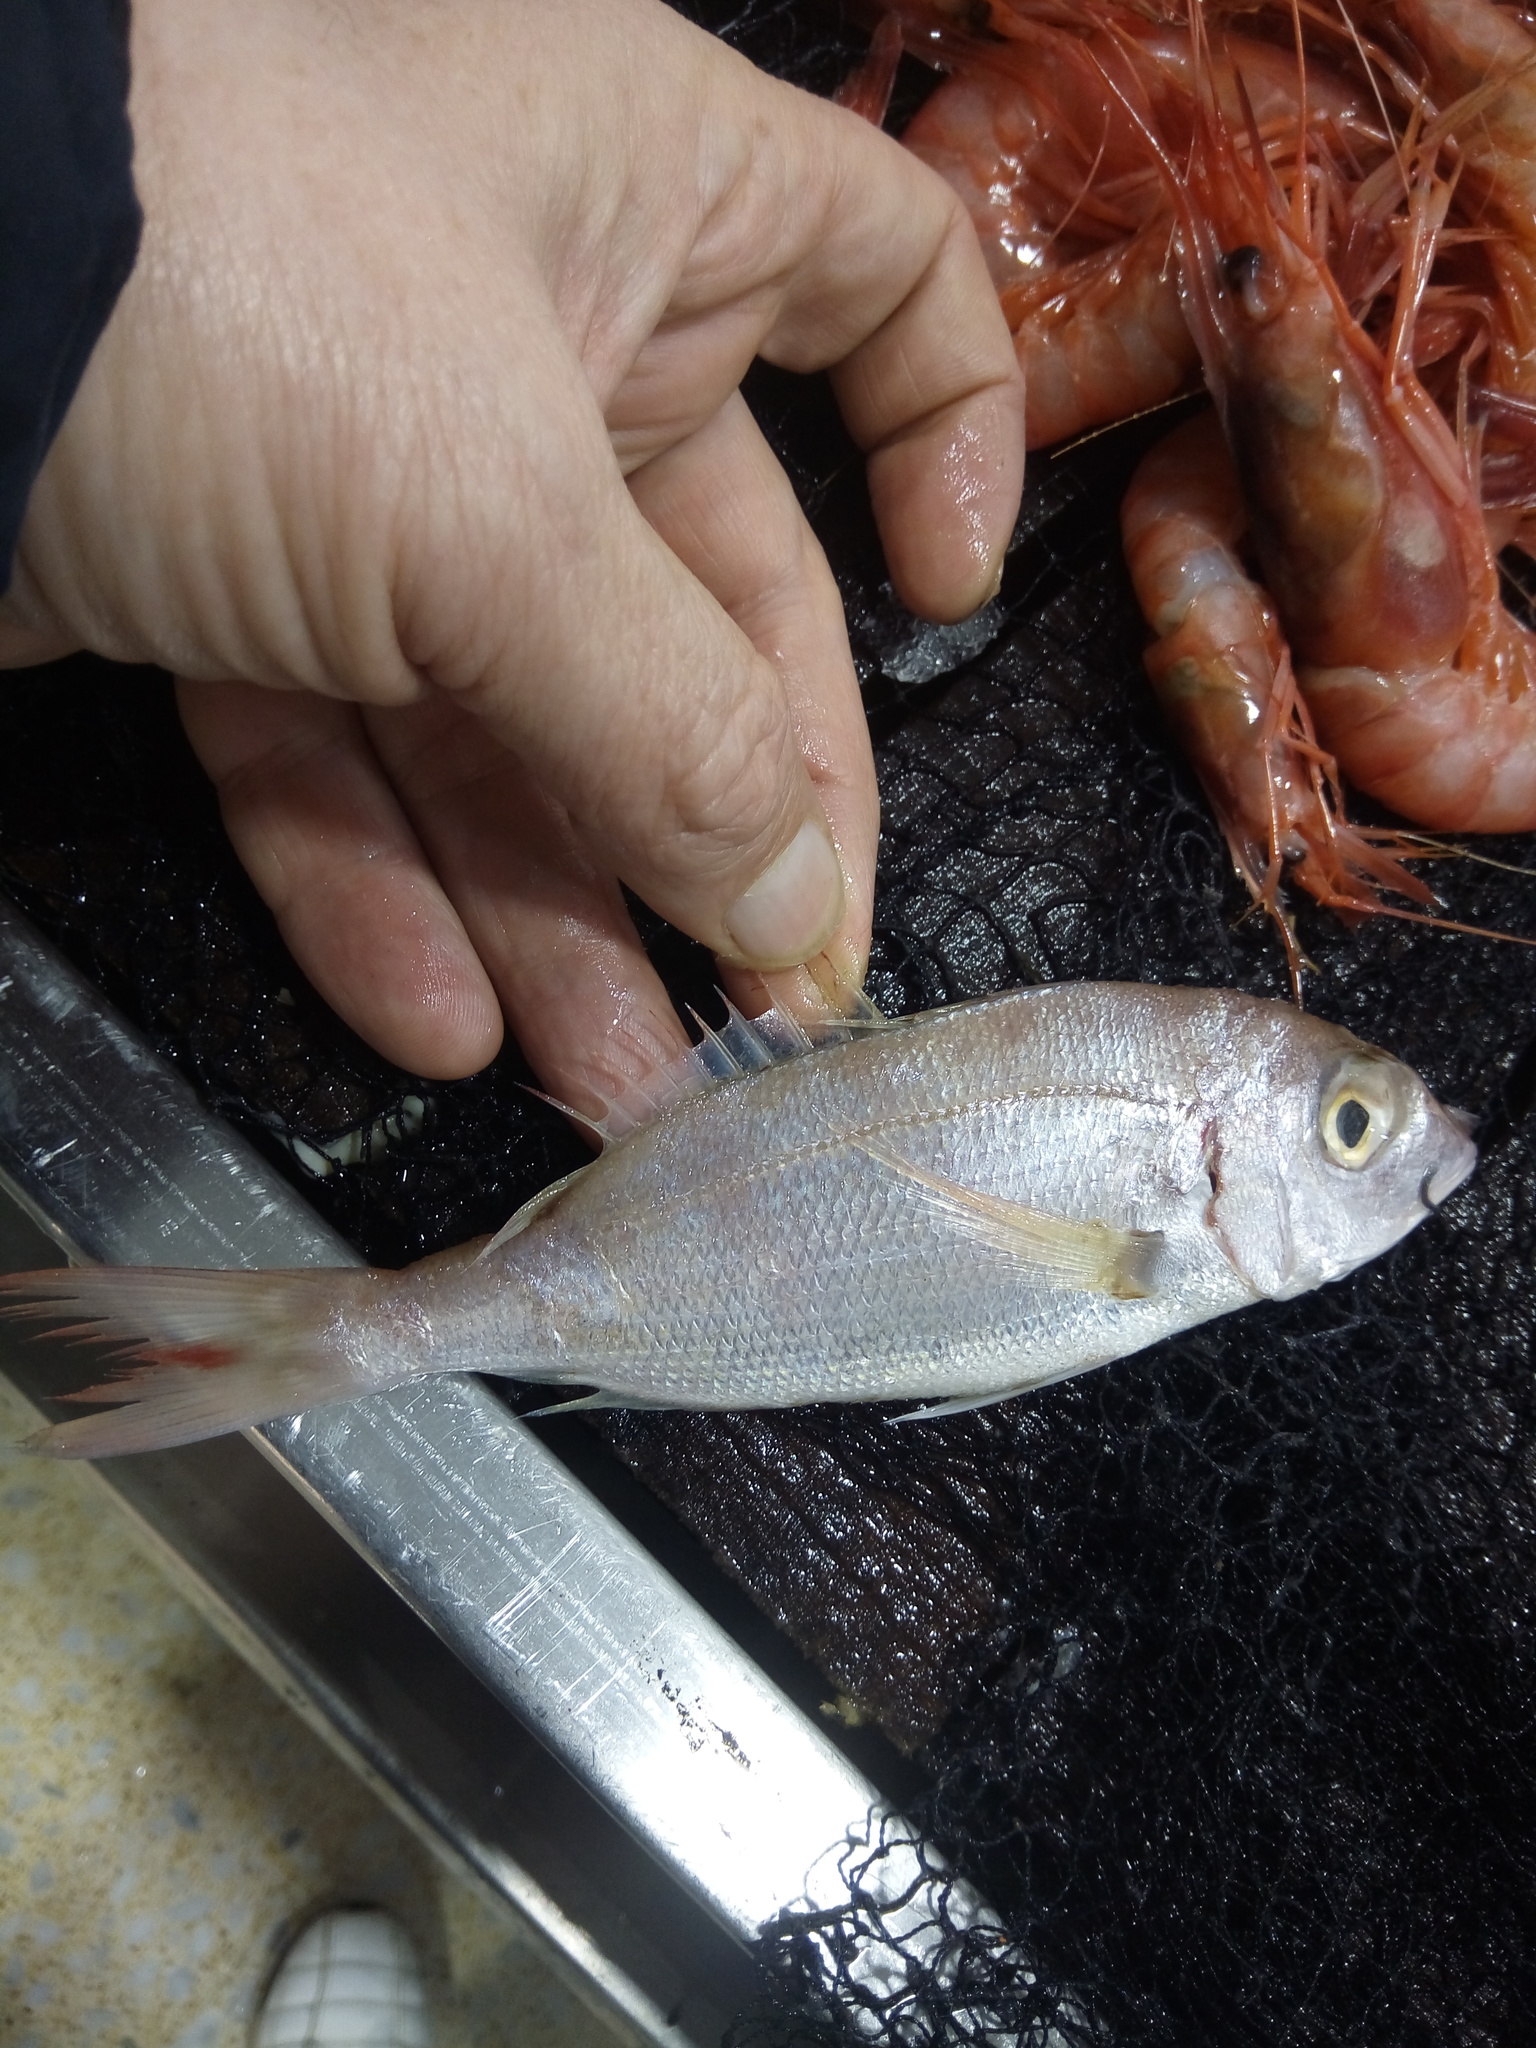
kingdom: Animalia
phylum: Chordata
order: Perciformes
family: Sparidae
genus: Pagellus
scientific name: Pagellus bellottii
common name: Red pandora
